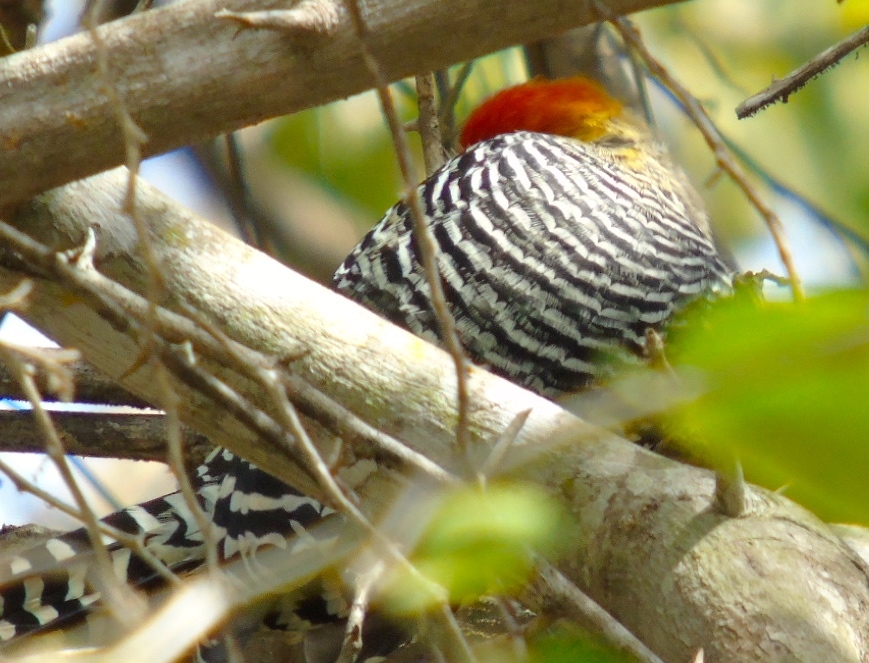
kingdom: Animalia
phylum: Chordata
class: Aves
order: Piciformes
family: Picidae
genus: Melanerpes
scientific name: Melanerpes chrysogenys
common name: Golden-cheeked woodpecker
